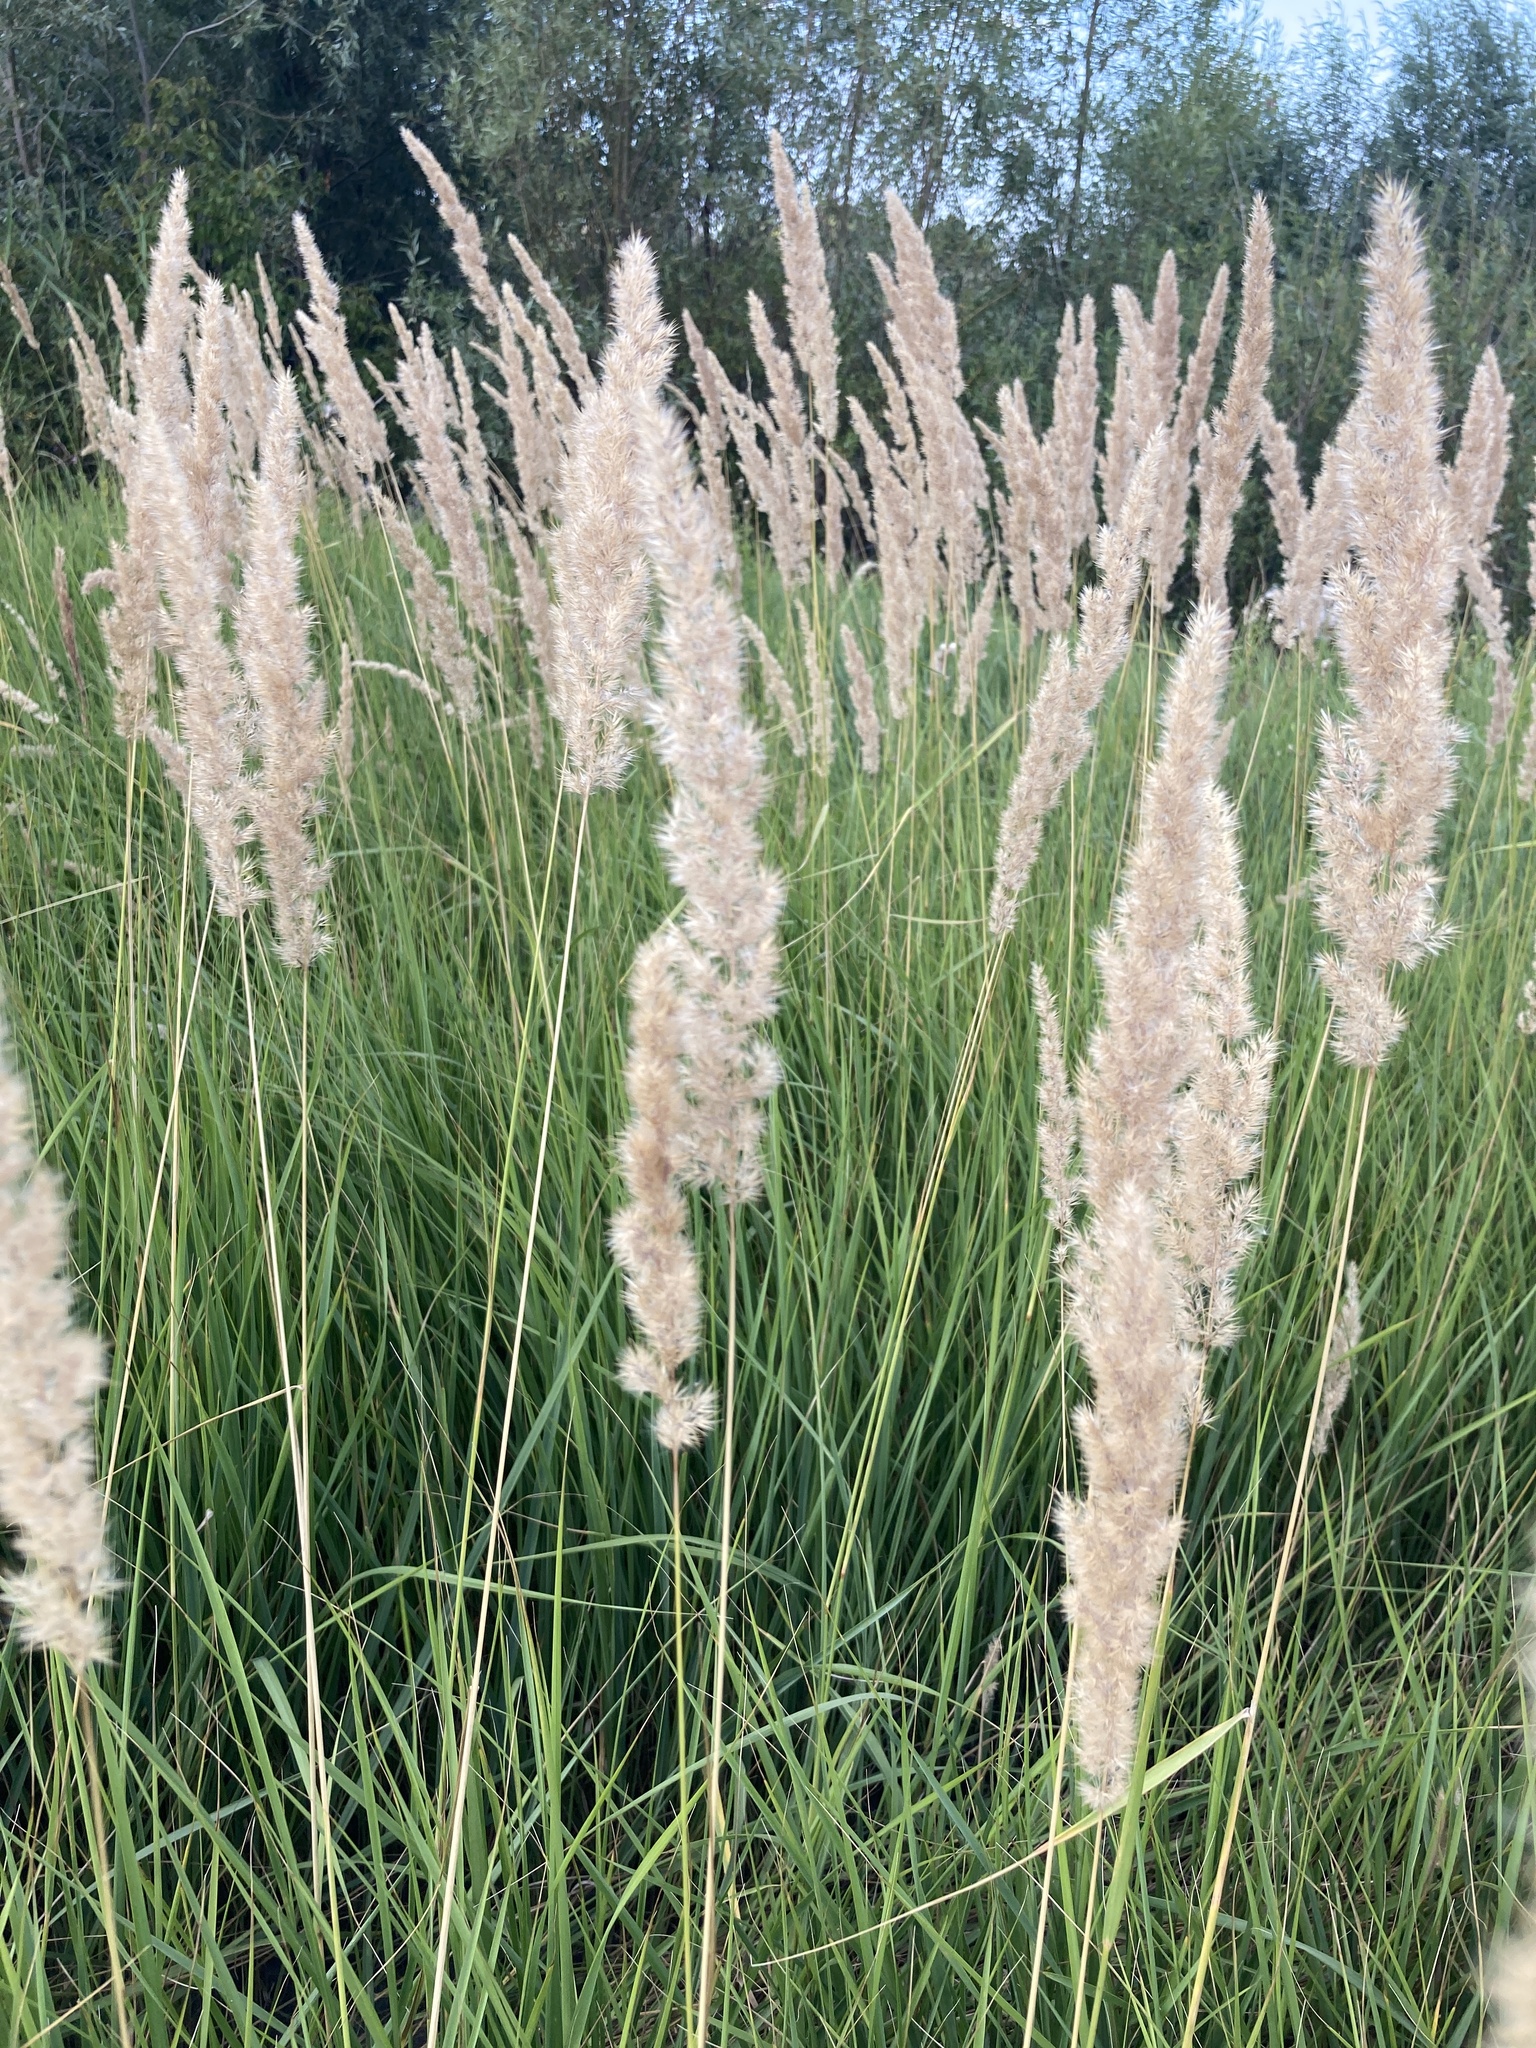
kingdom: Plantae
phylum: Tracheophyta
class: Liliopsida
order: Poales
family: Poaceae
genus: Calamagrostis
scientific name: Calamagrostis epigejos
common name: Wood small-reed
